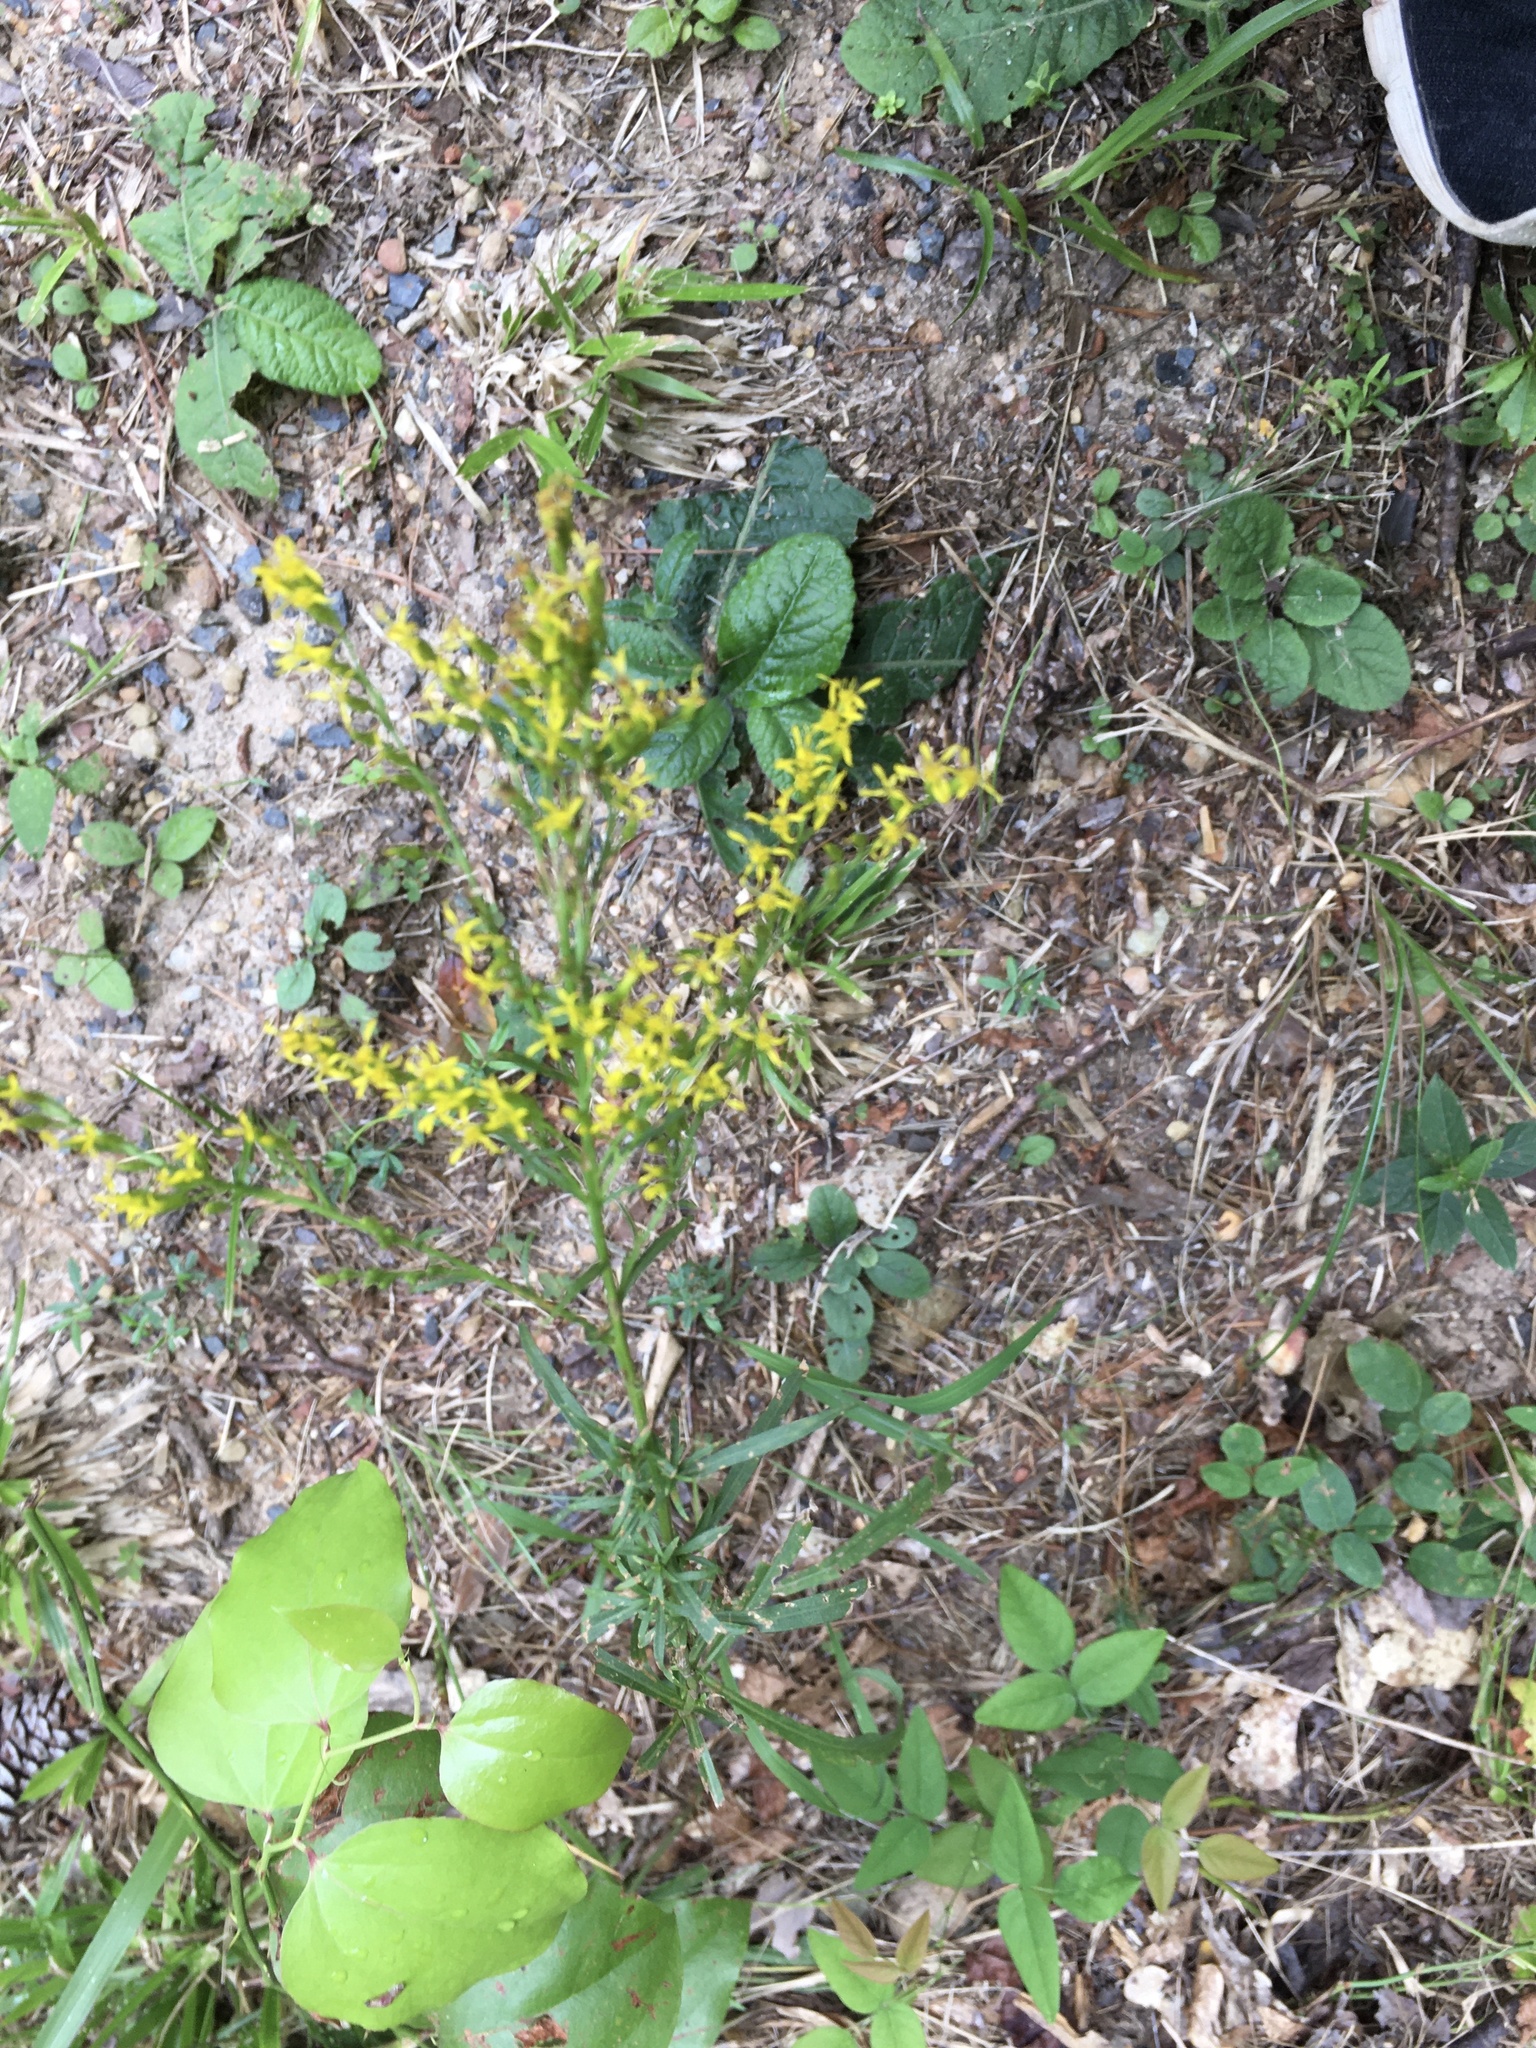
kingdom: Plantae
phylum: Tracheophyta
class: Magnoliopsida
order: Asterales
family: Asteraceae
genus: Solidago
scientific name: Solidago pinetorum
